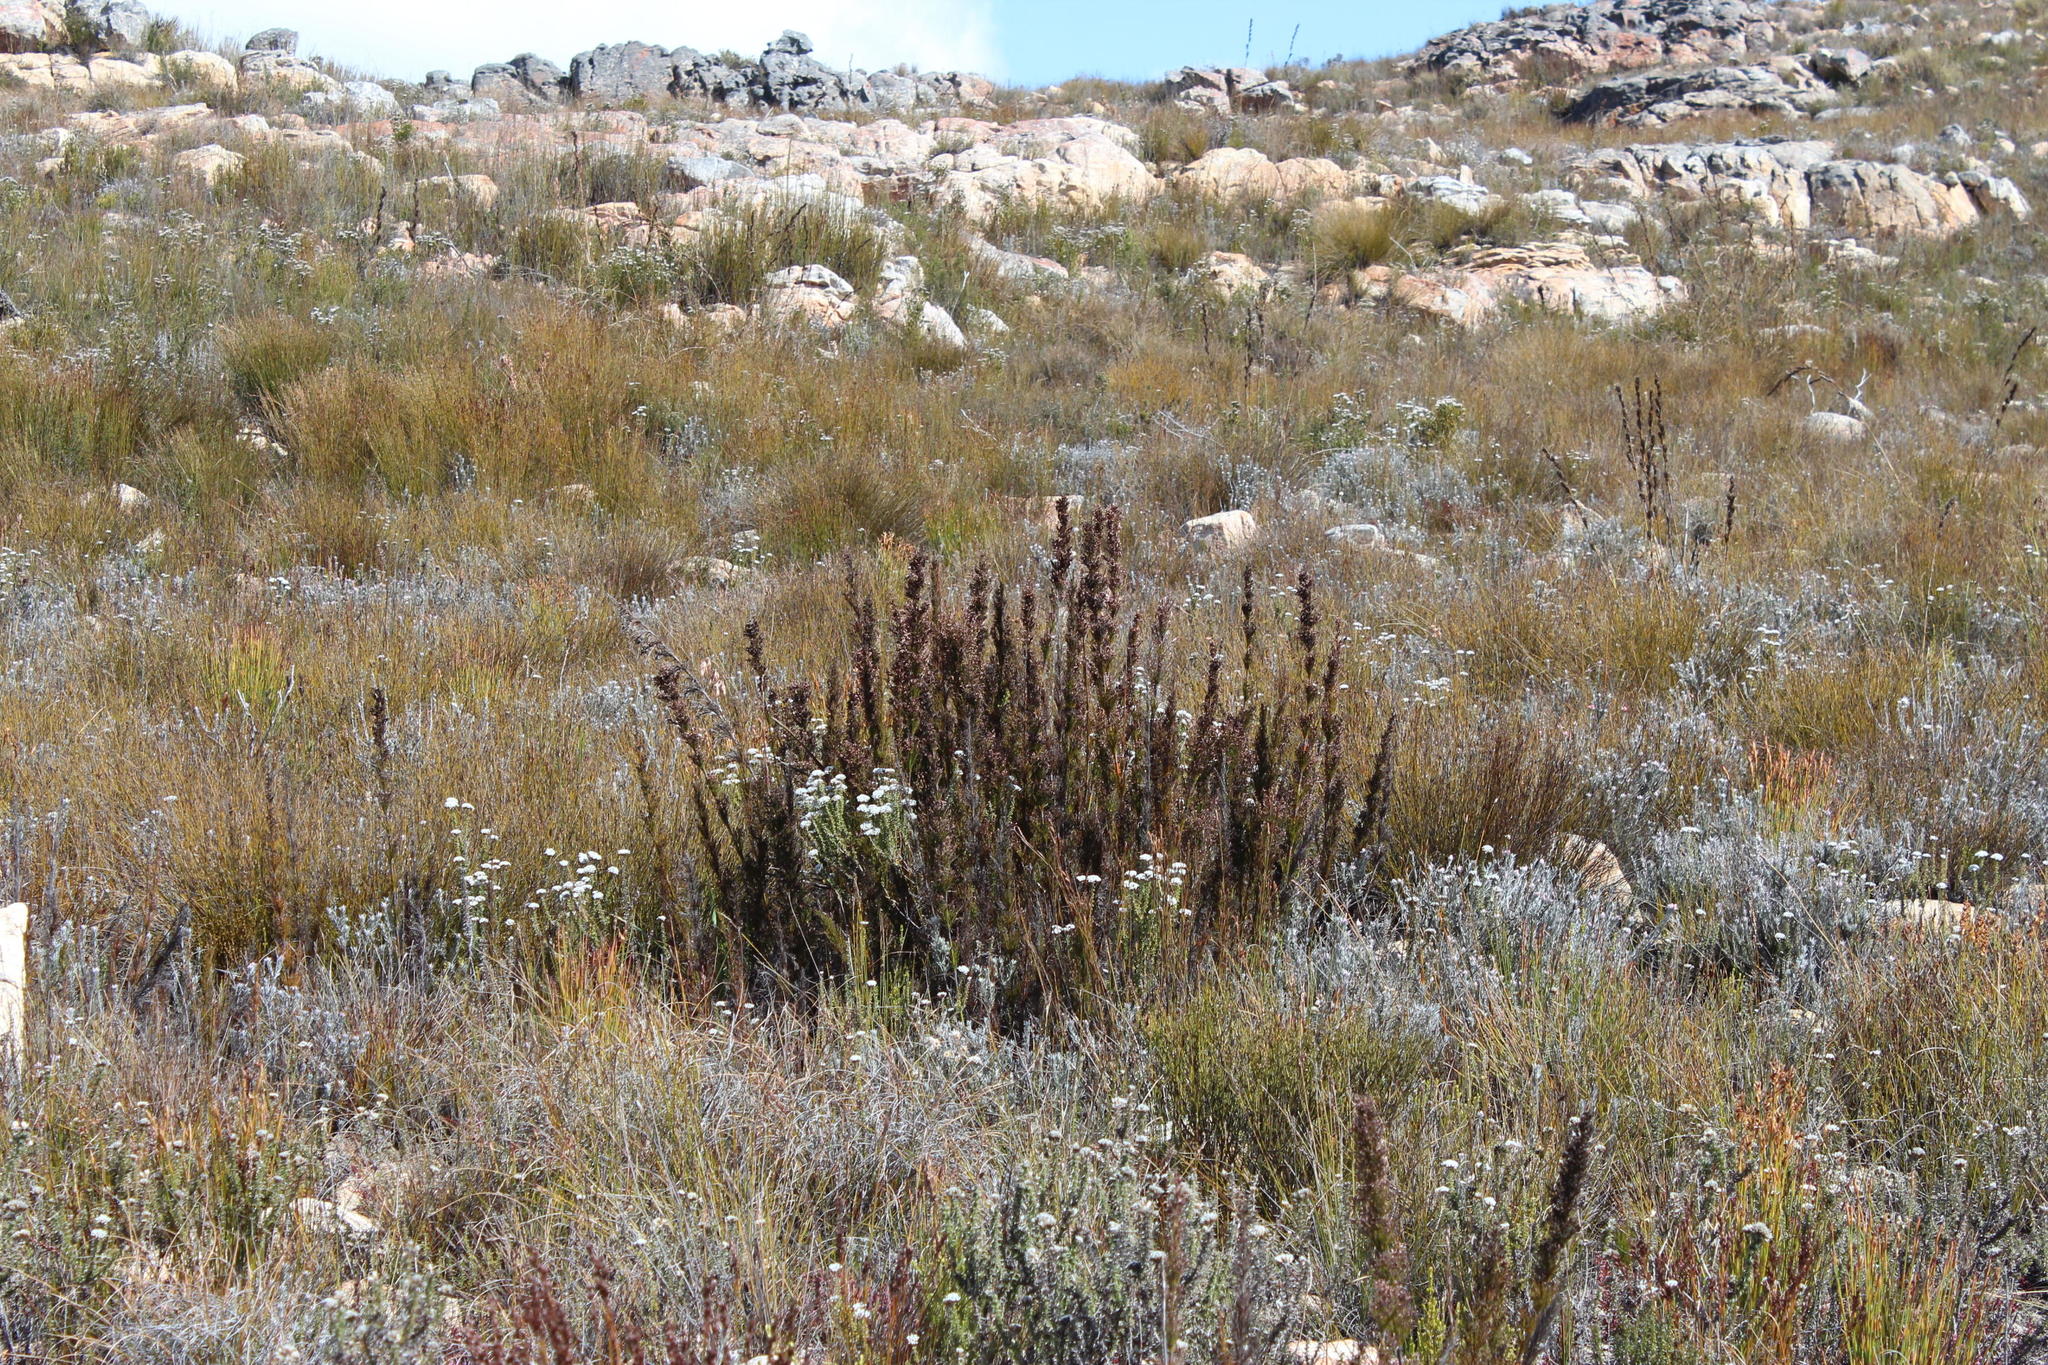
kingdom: Plantae
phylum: Tracheophyta
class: Liliopsida
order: Poales
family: Restionaceae
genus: Rhodocoma
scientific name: Rhodocoma capensis
